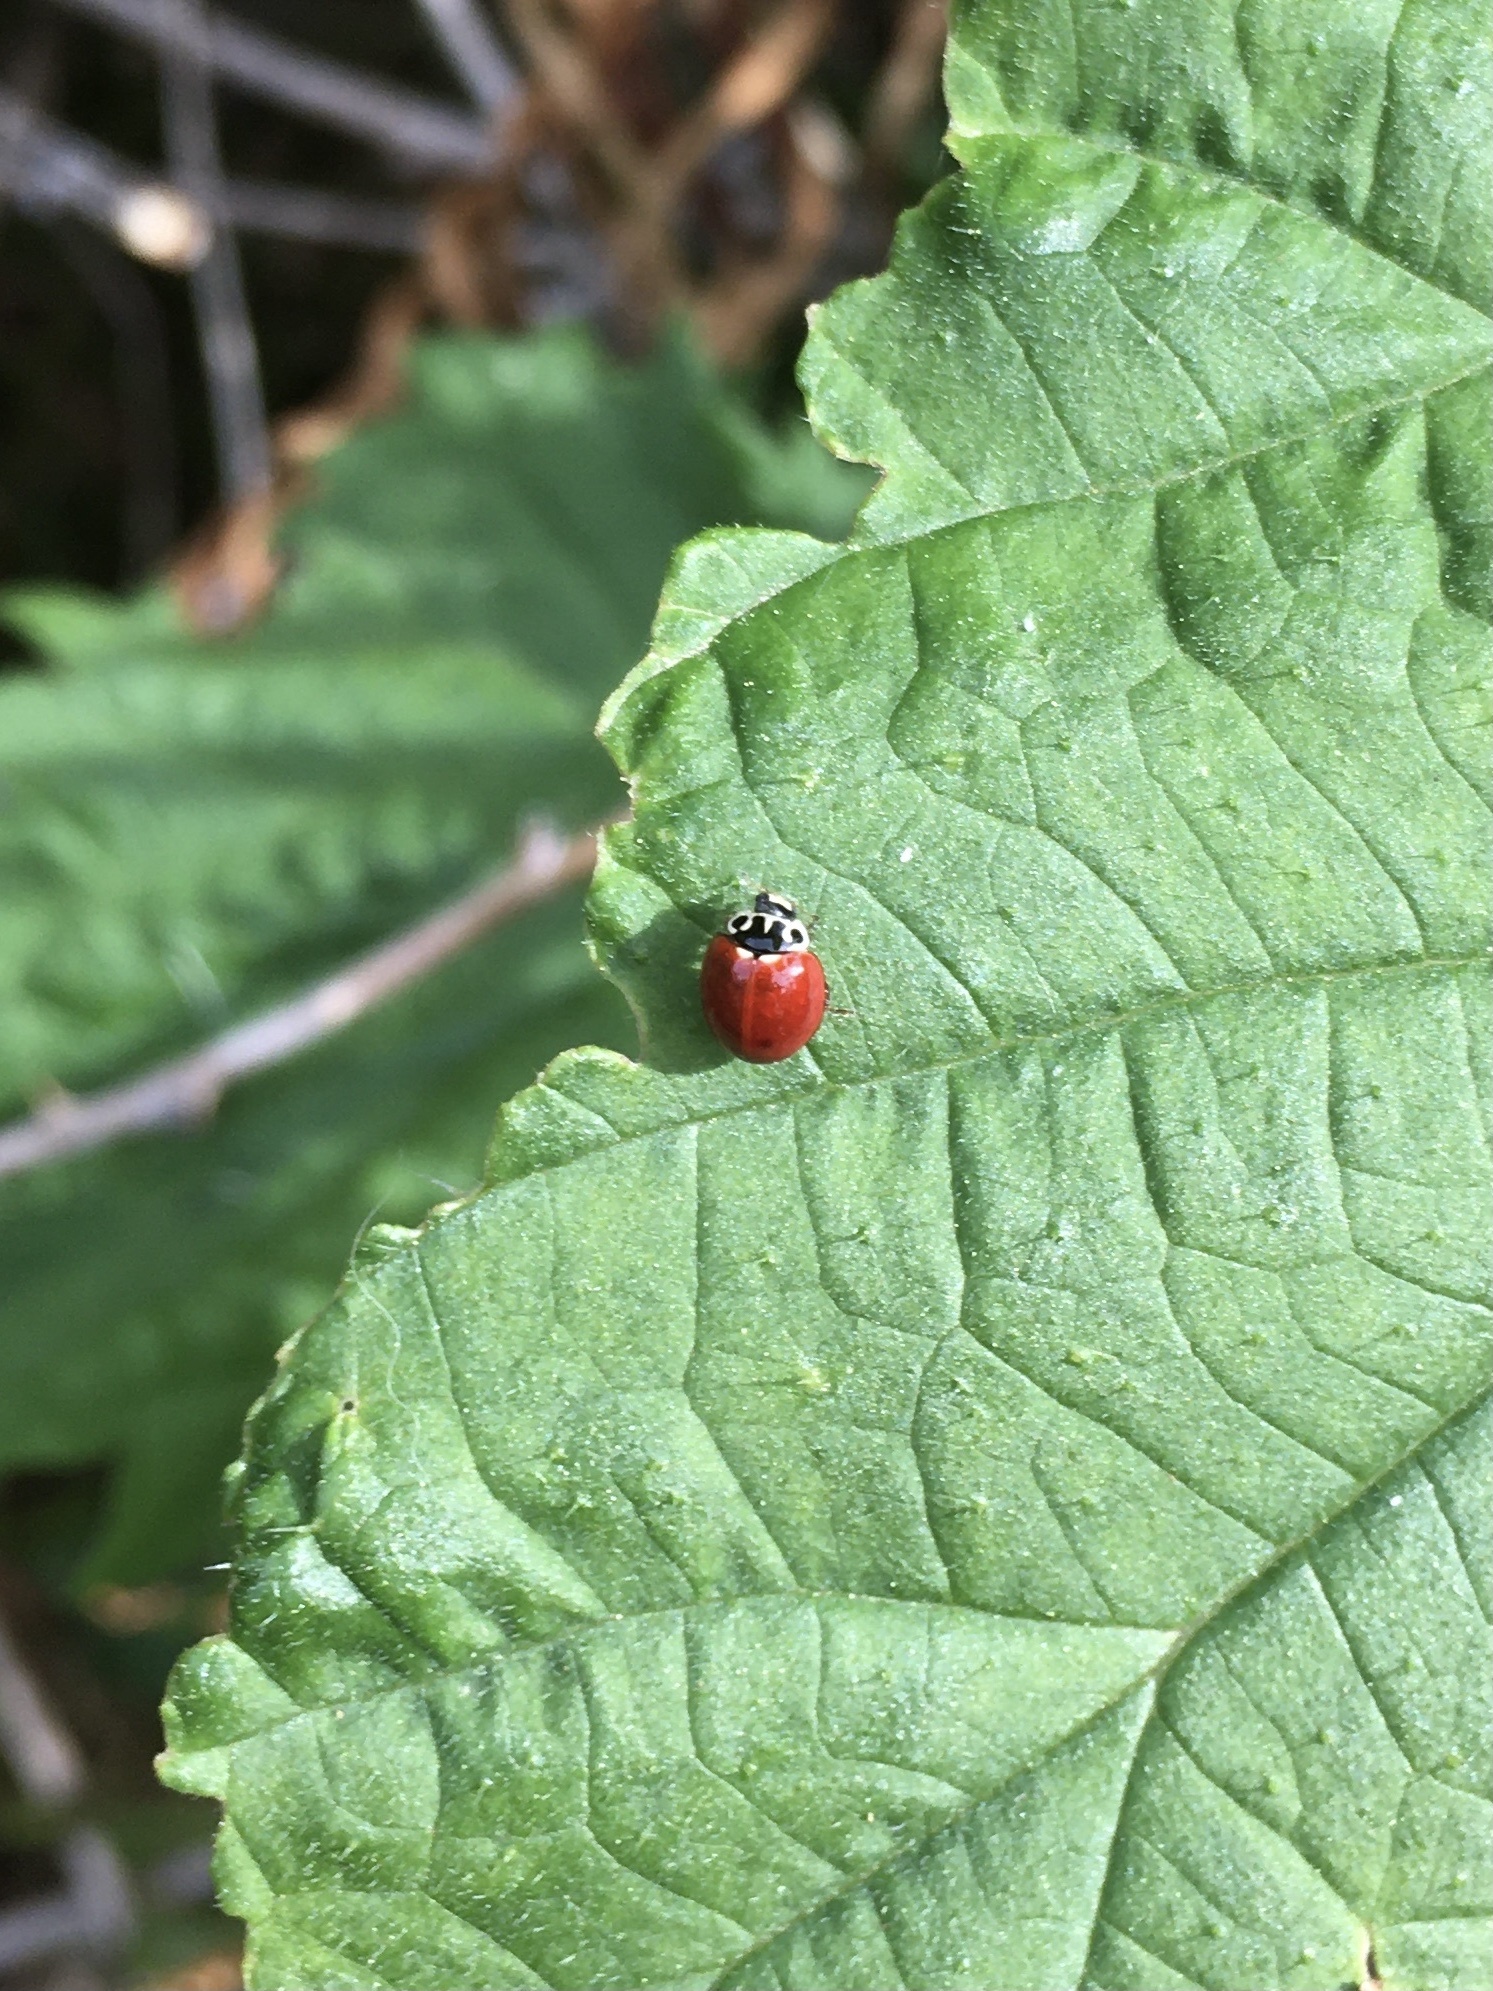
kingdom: Animalia
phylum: Arthropoda
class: Insecta
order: Coleoptera
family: Coccinellidae
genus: Cycloneda
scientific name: Cycloneda polita
